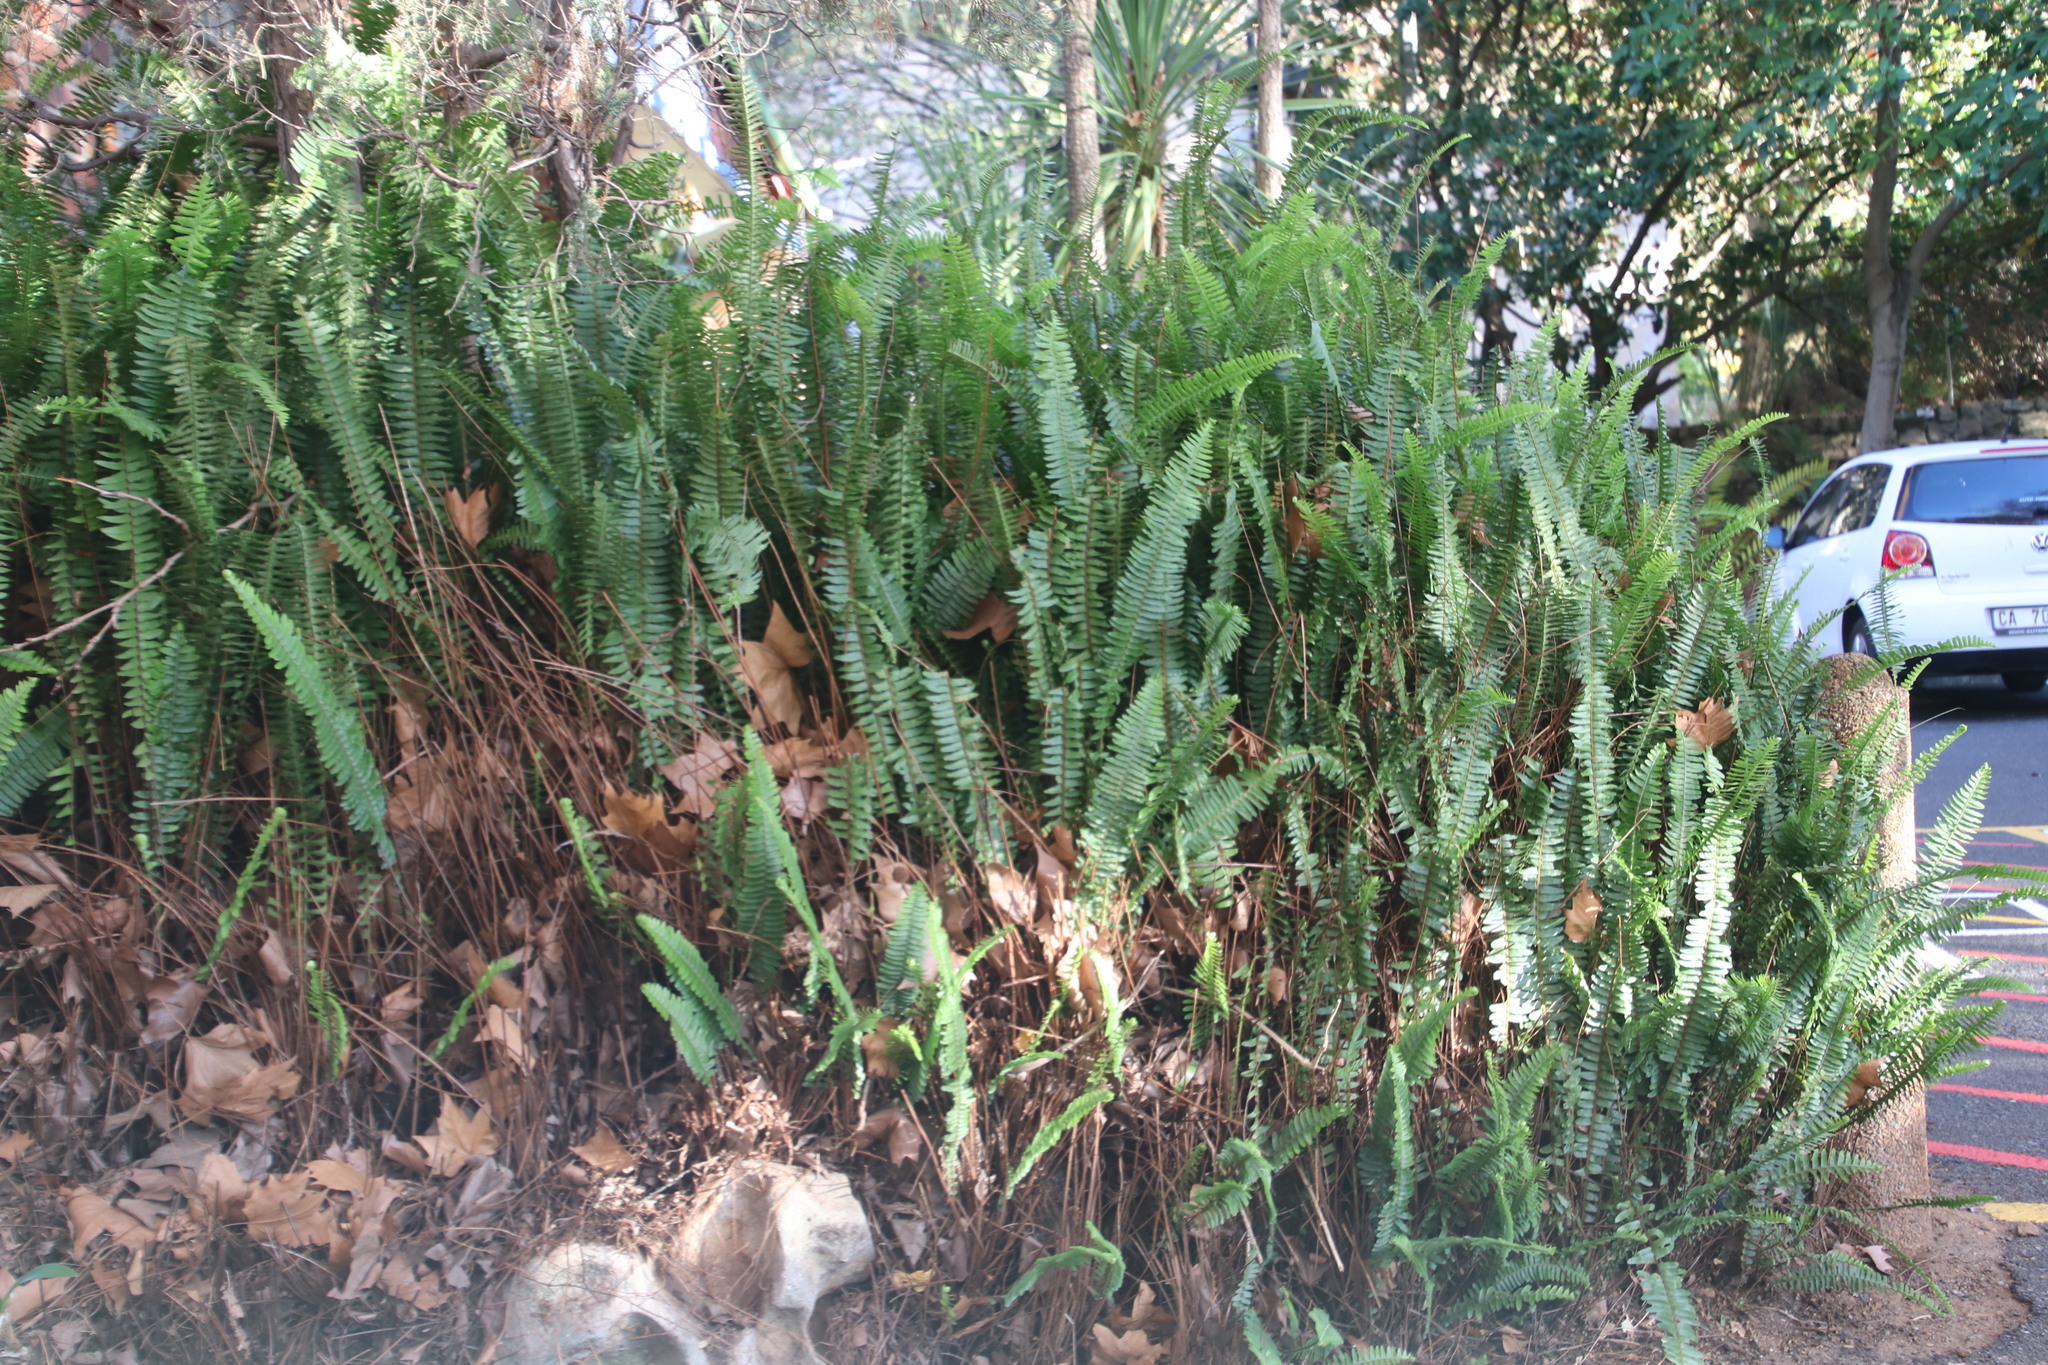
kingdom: Plantae
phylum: Tracheophyta
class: Polypodiopsida
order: Polypodiales
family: Nephrolepidaceae
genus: Nephrolepis
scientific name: Nephrolepis cordifolia
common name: Narrow swordfern
